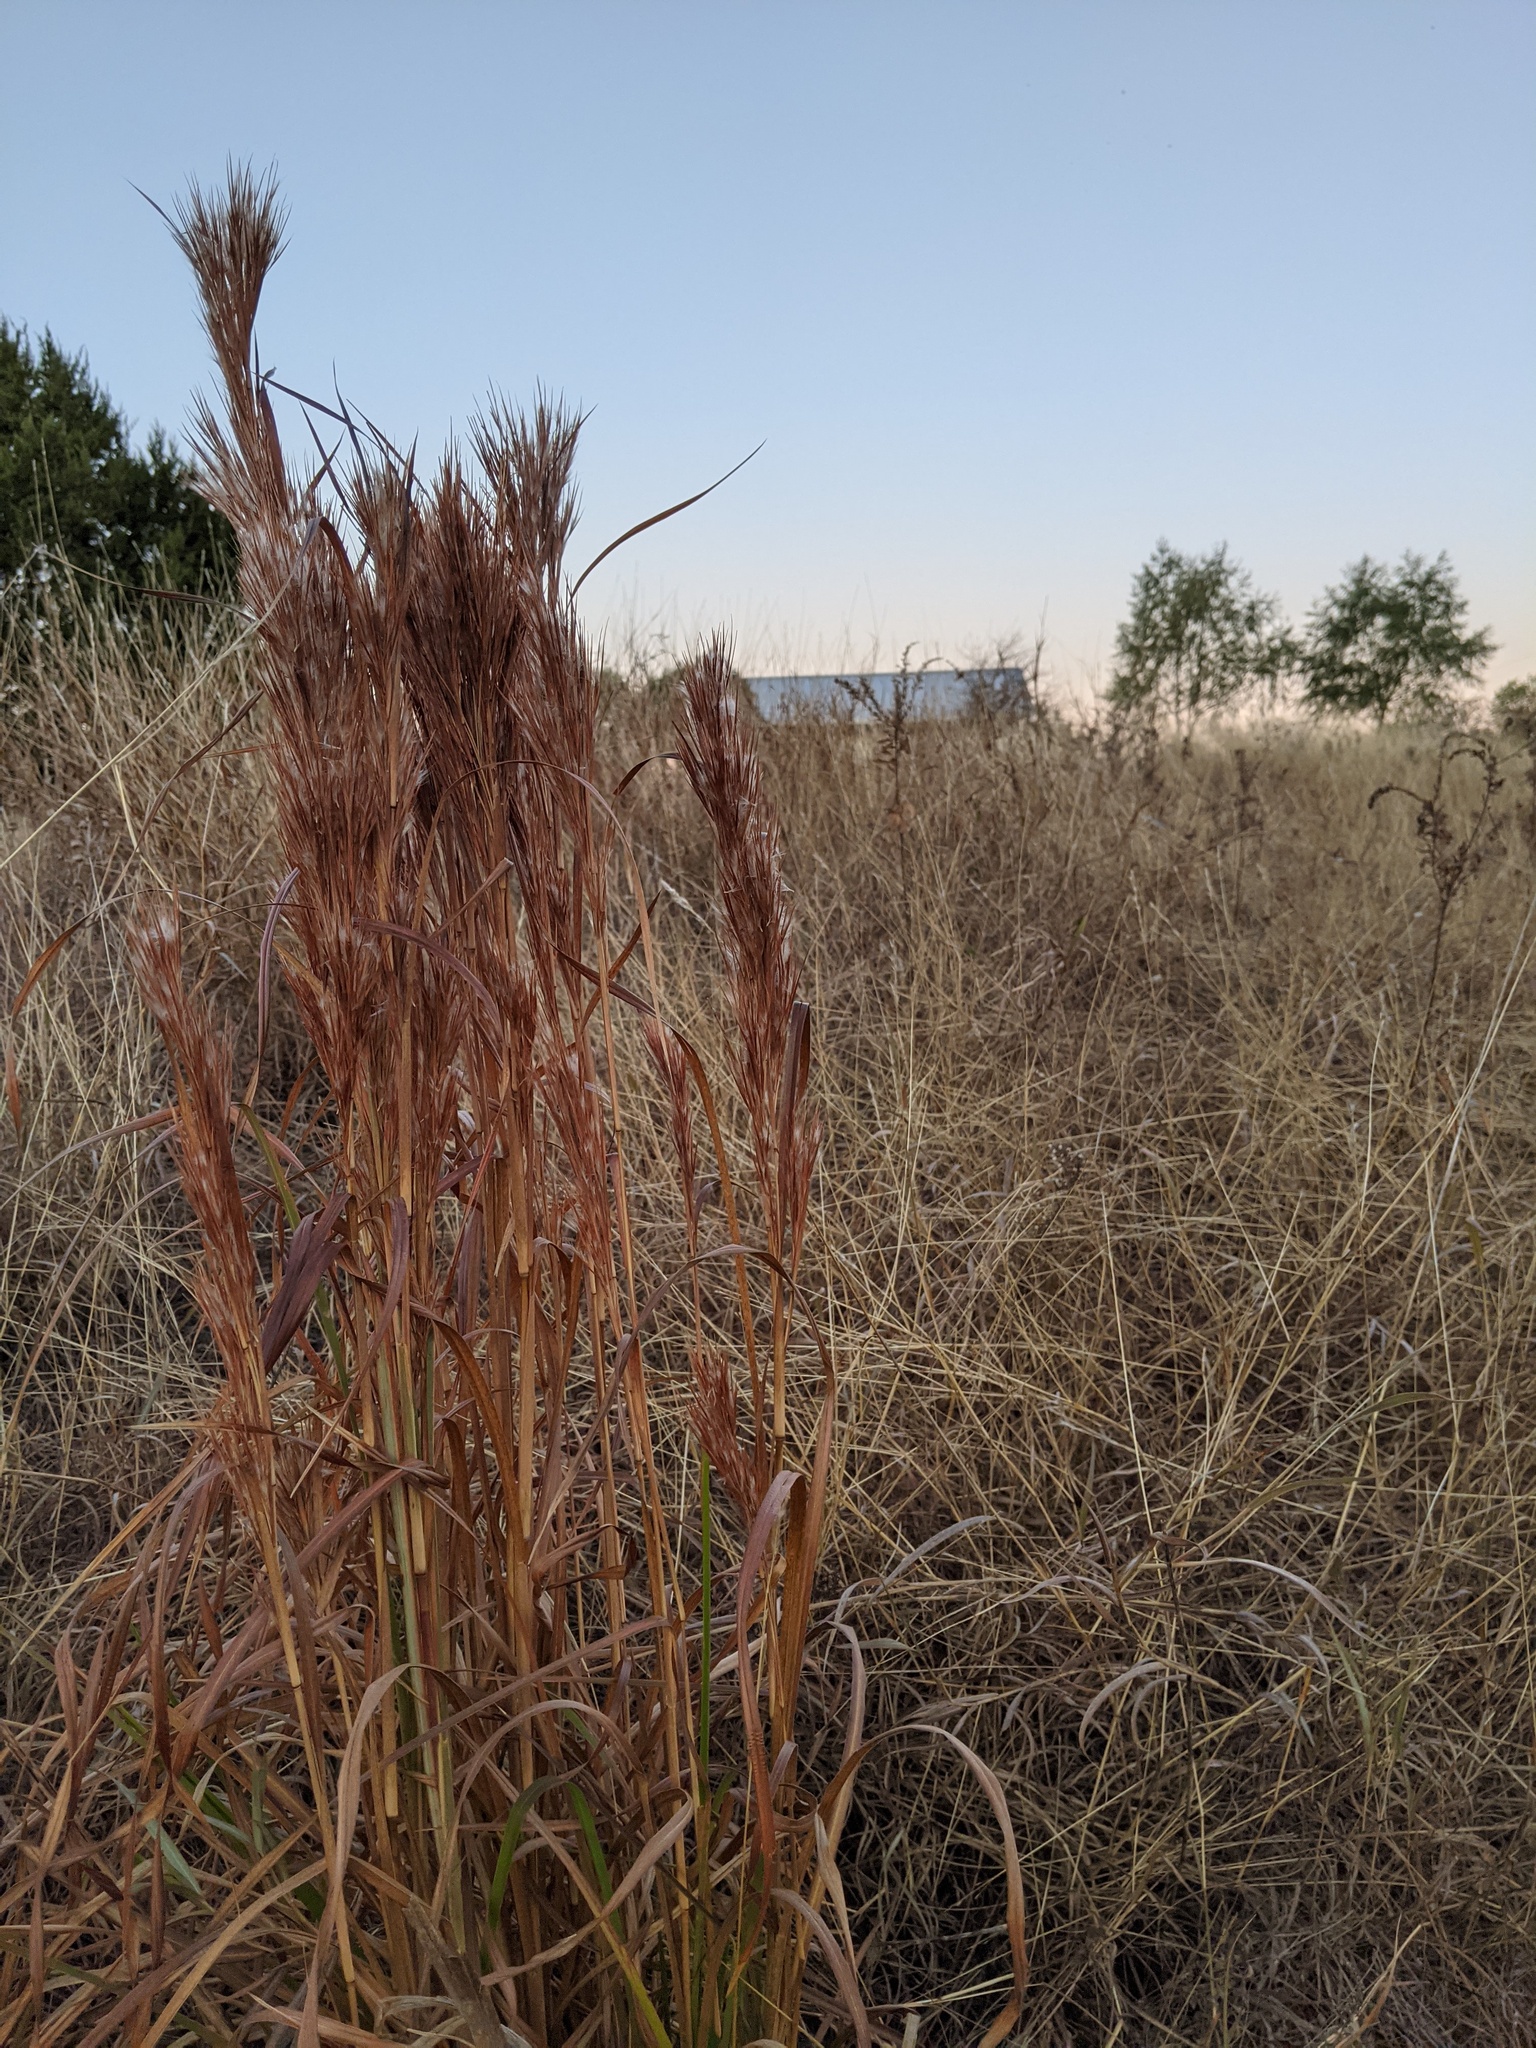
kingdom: Plantae
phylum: Tracheophyta
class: Liliopsida
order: Poales
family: Poaceae
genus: Andropogon
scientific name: Andropogon tenuispatheus
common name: Bushy bluestem
